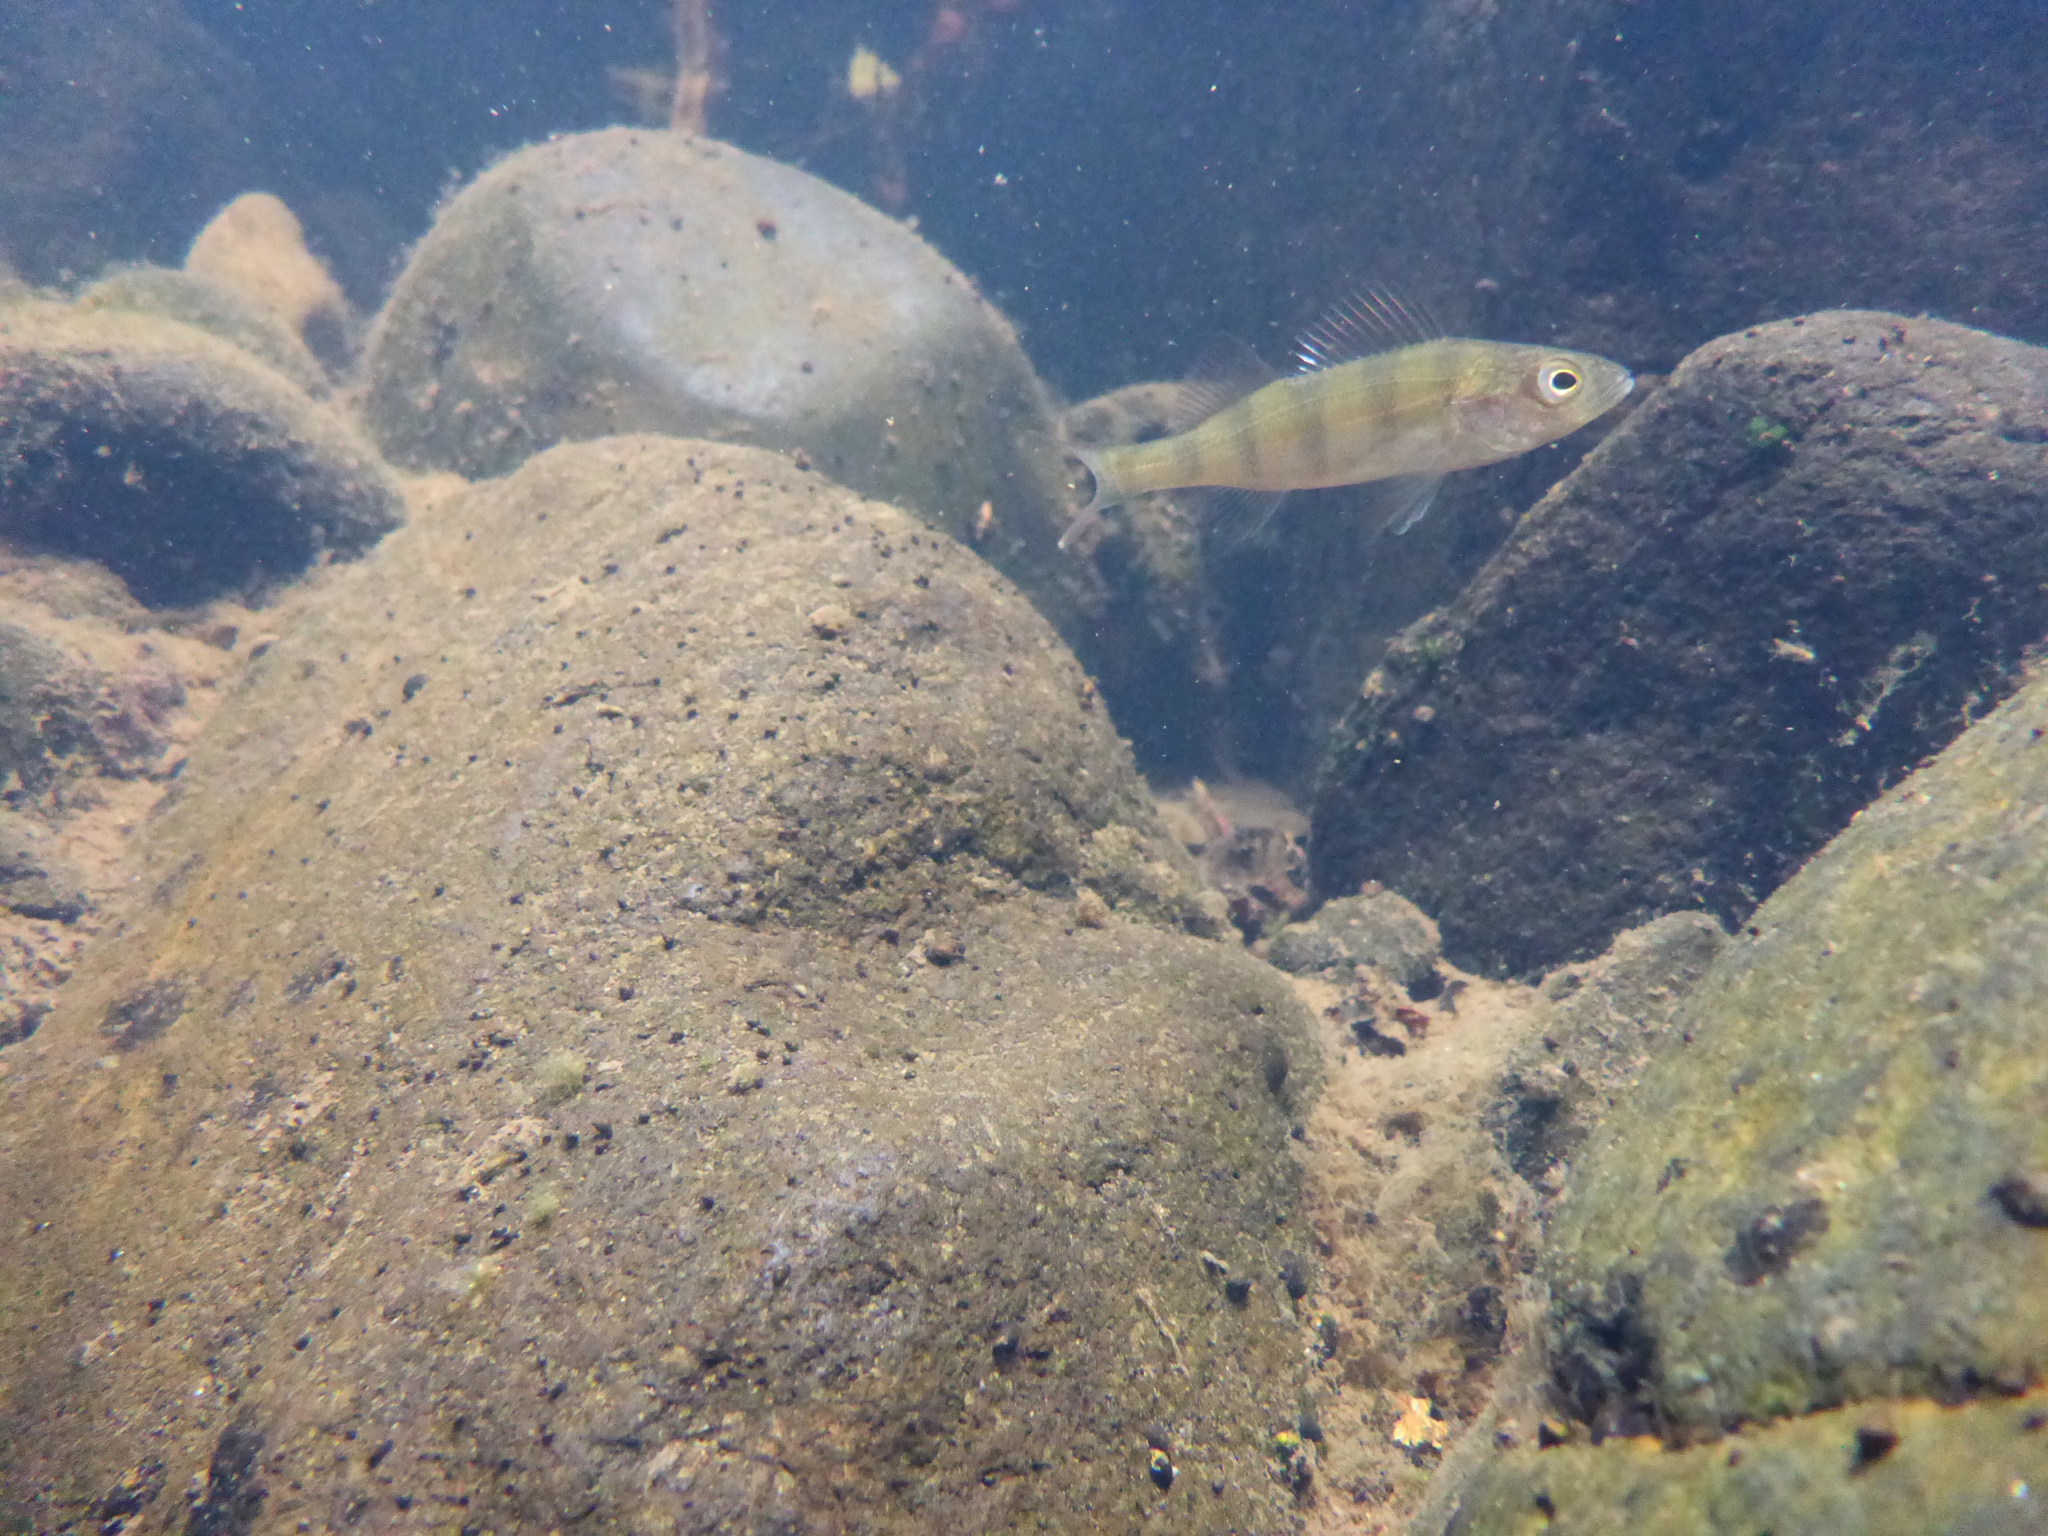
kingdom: Animalia
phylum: Chordata
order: Perciformes
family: Percidae
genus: Perca
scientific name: Perca fluviatilis
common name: Perch
